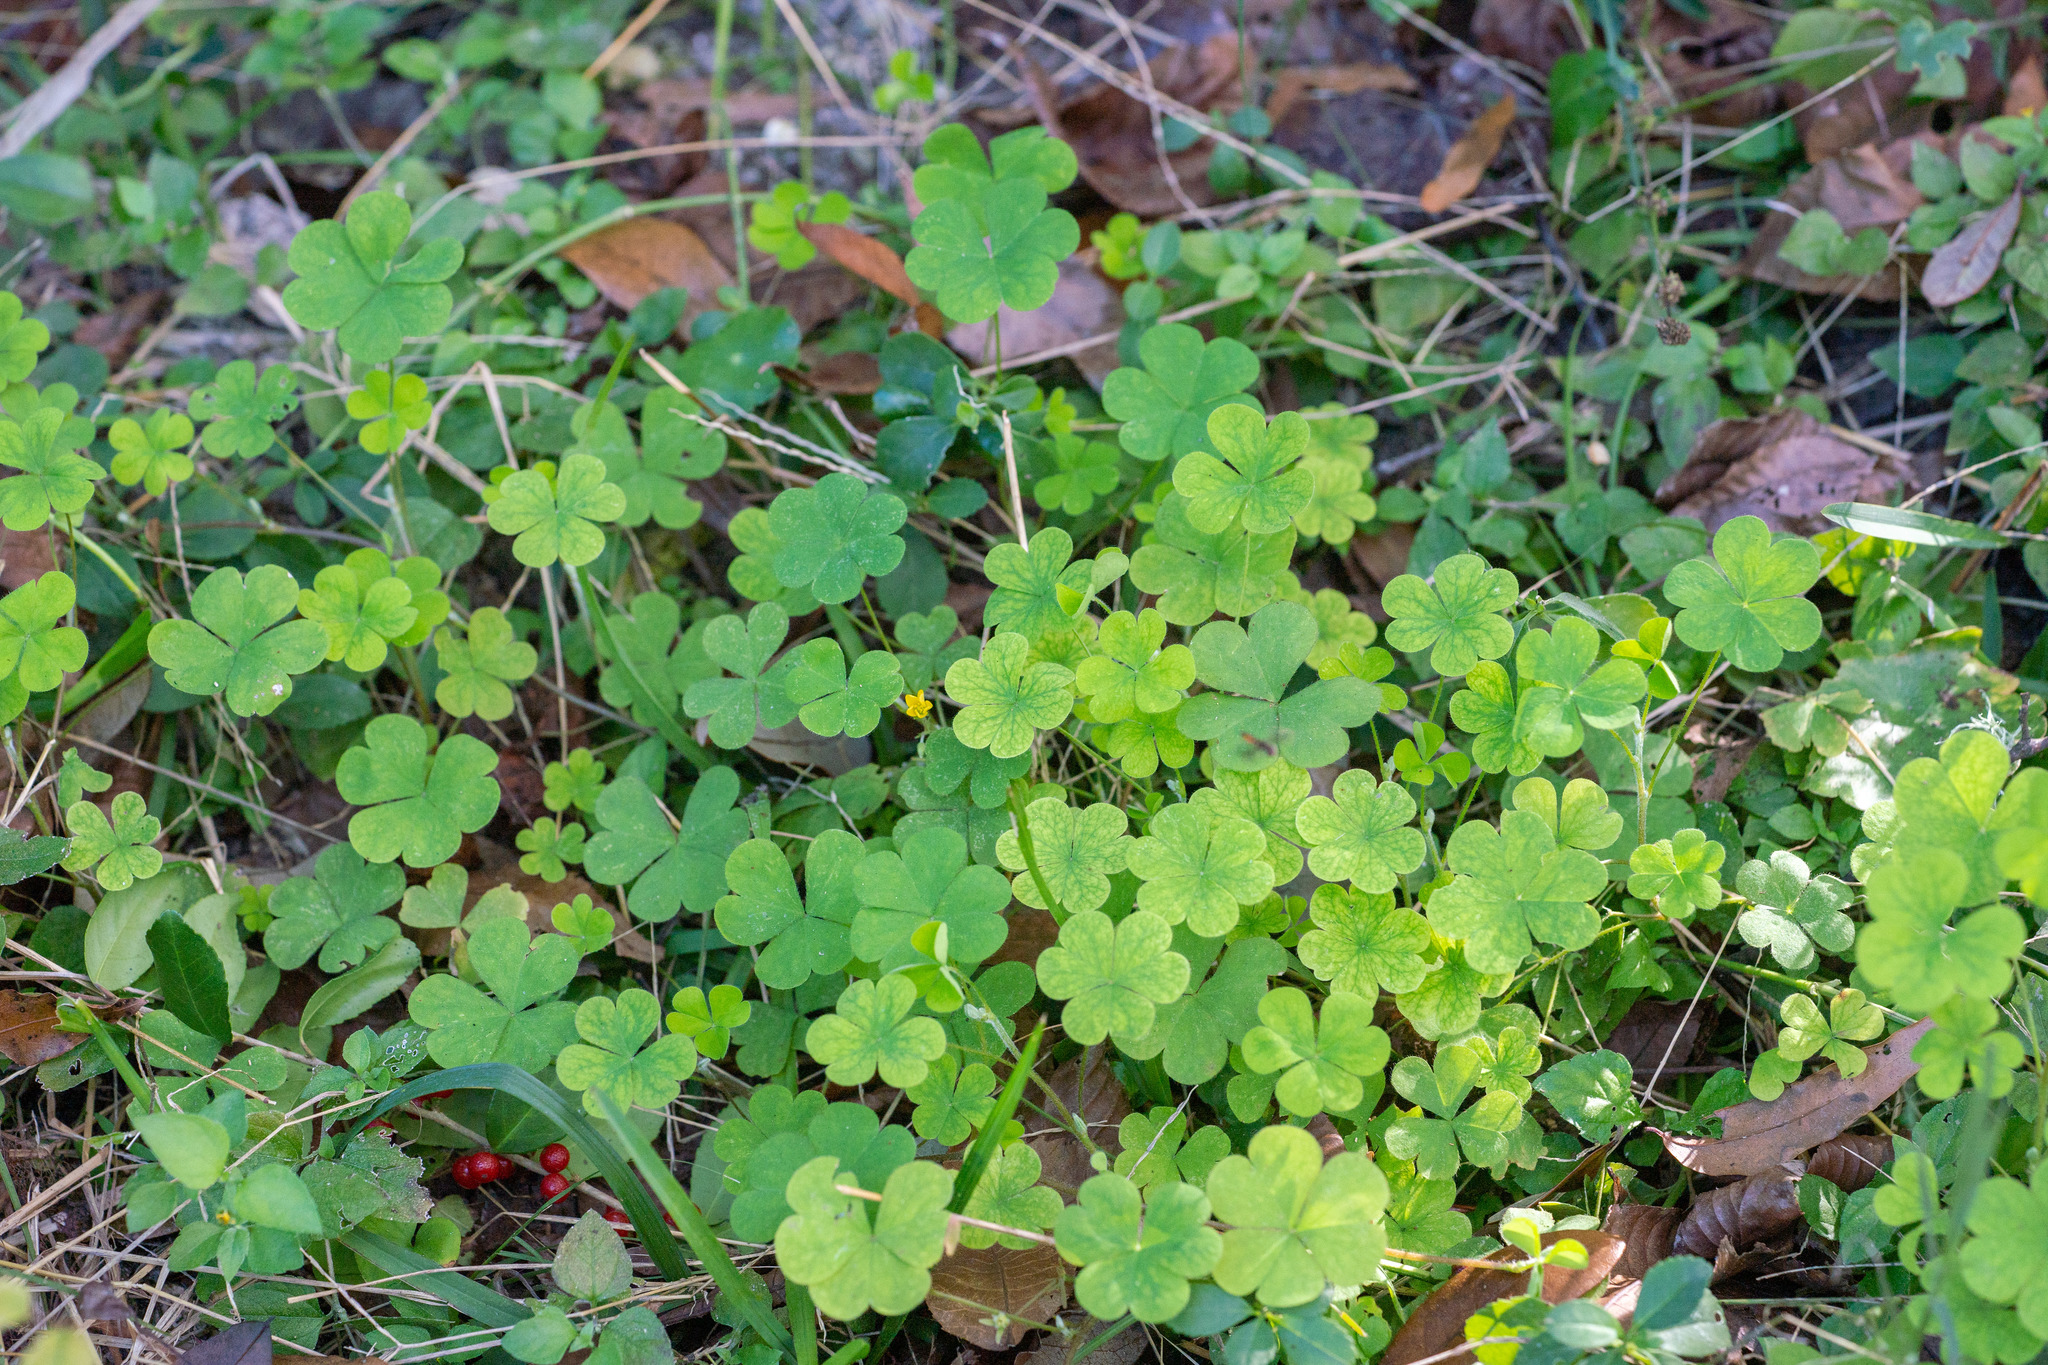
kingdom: Plantae
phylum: Tracheophyta
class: Magnoliopsida
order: Oxalidales
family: Oxalidaceae
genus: Oxalis
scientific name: Oxalis corniculata
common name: Procumbent yellow-sorrel
